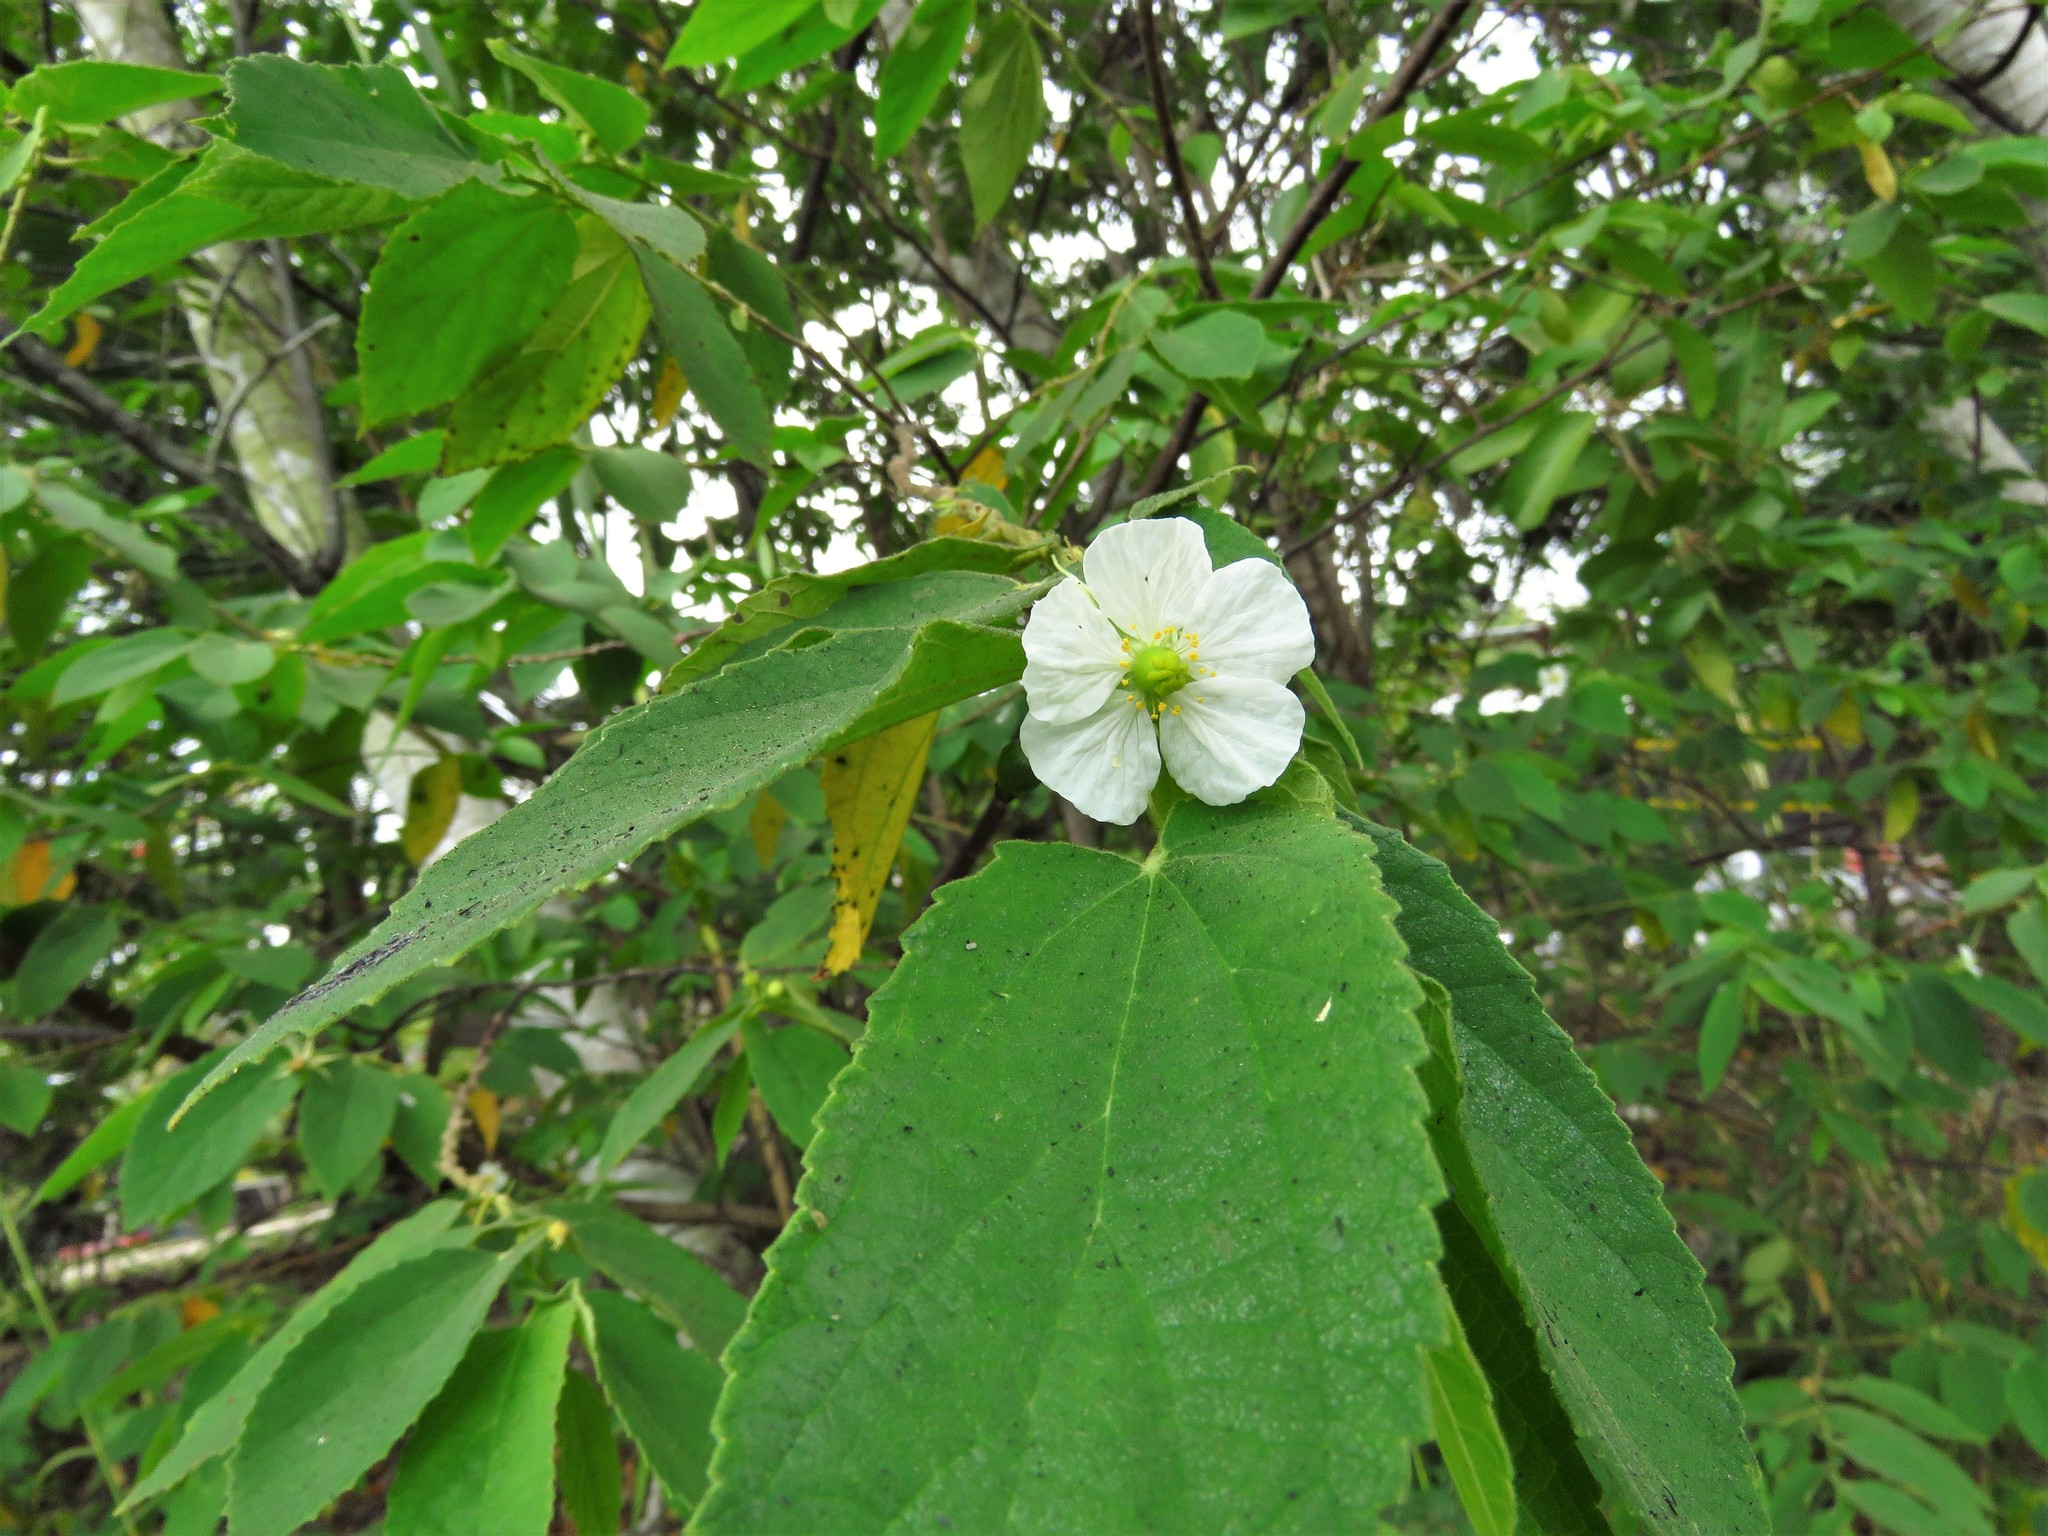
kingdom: Plantae
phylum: Tracheophyta
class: Magnoliopsida
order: Malvales
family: Muntingiaceae
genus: Muntingia
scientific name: Muntingia calabura
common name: Strawberrytree
